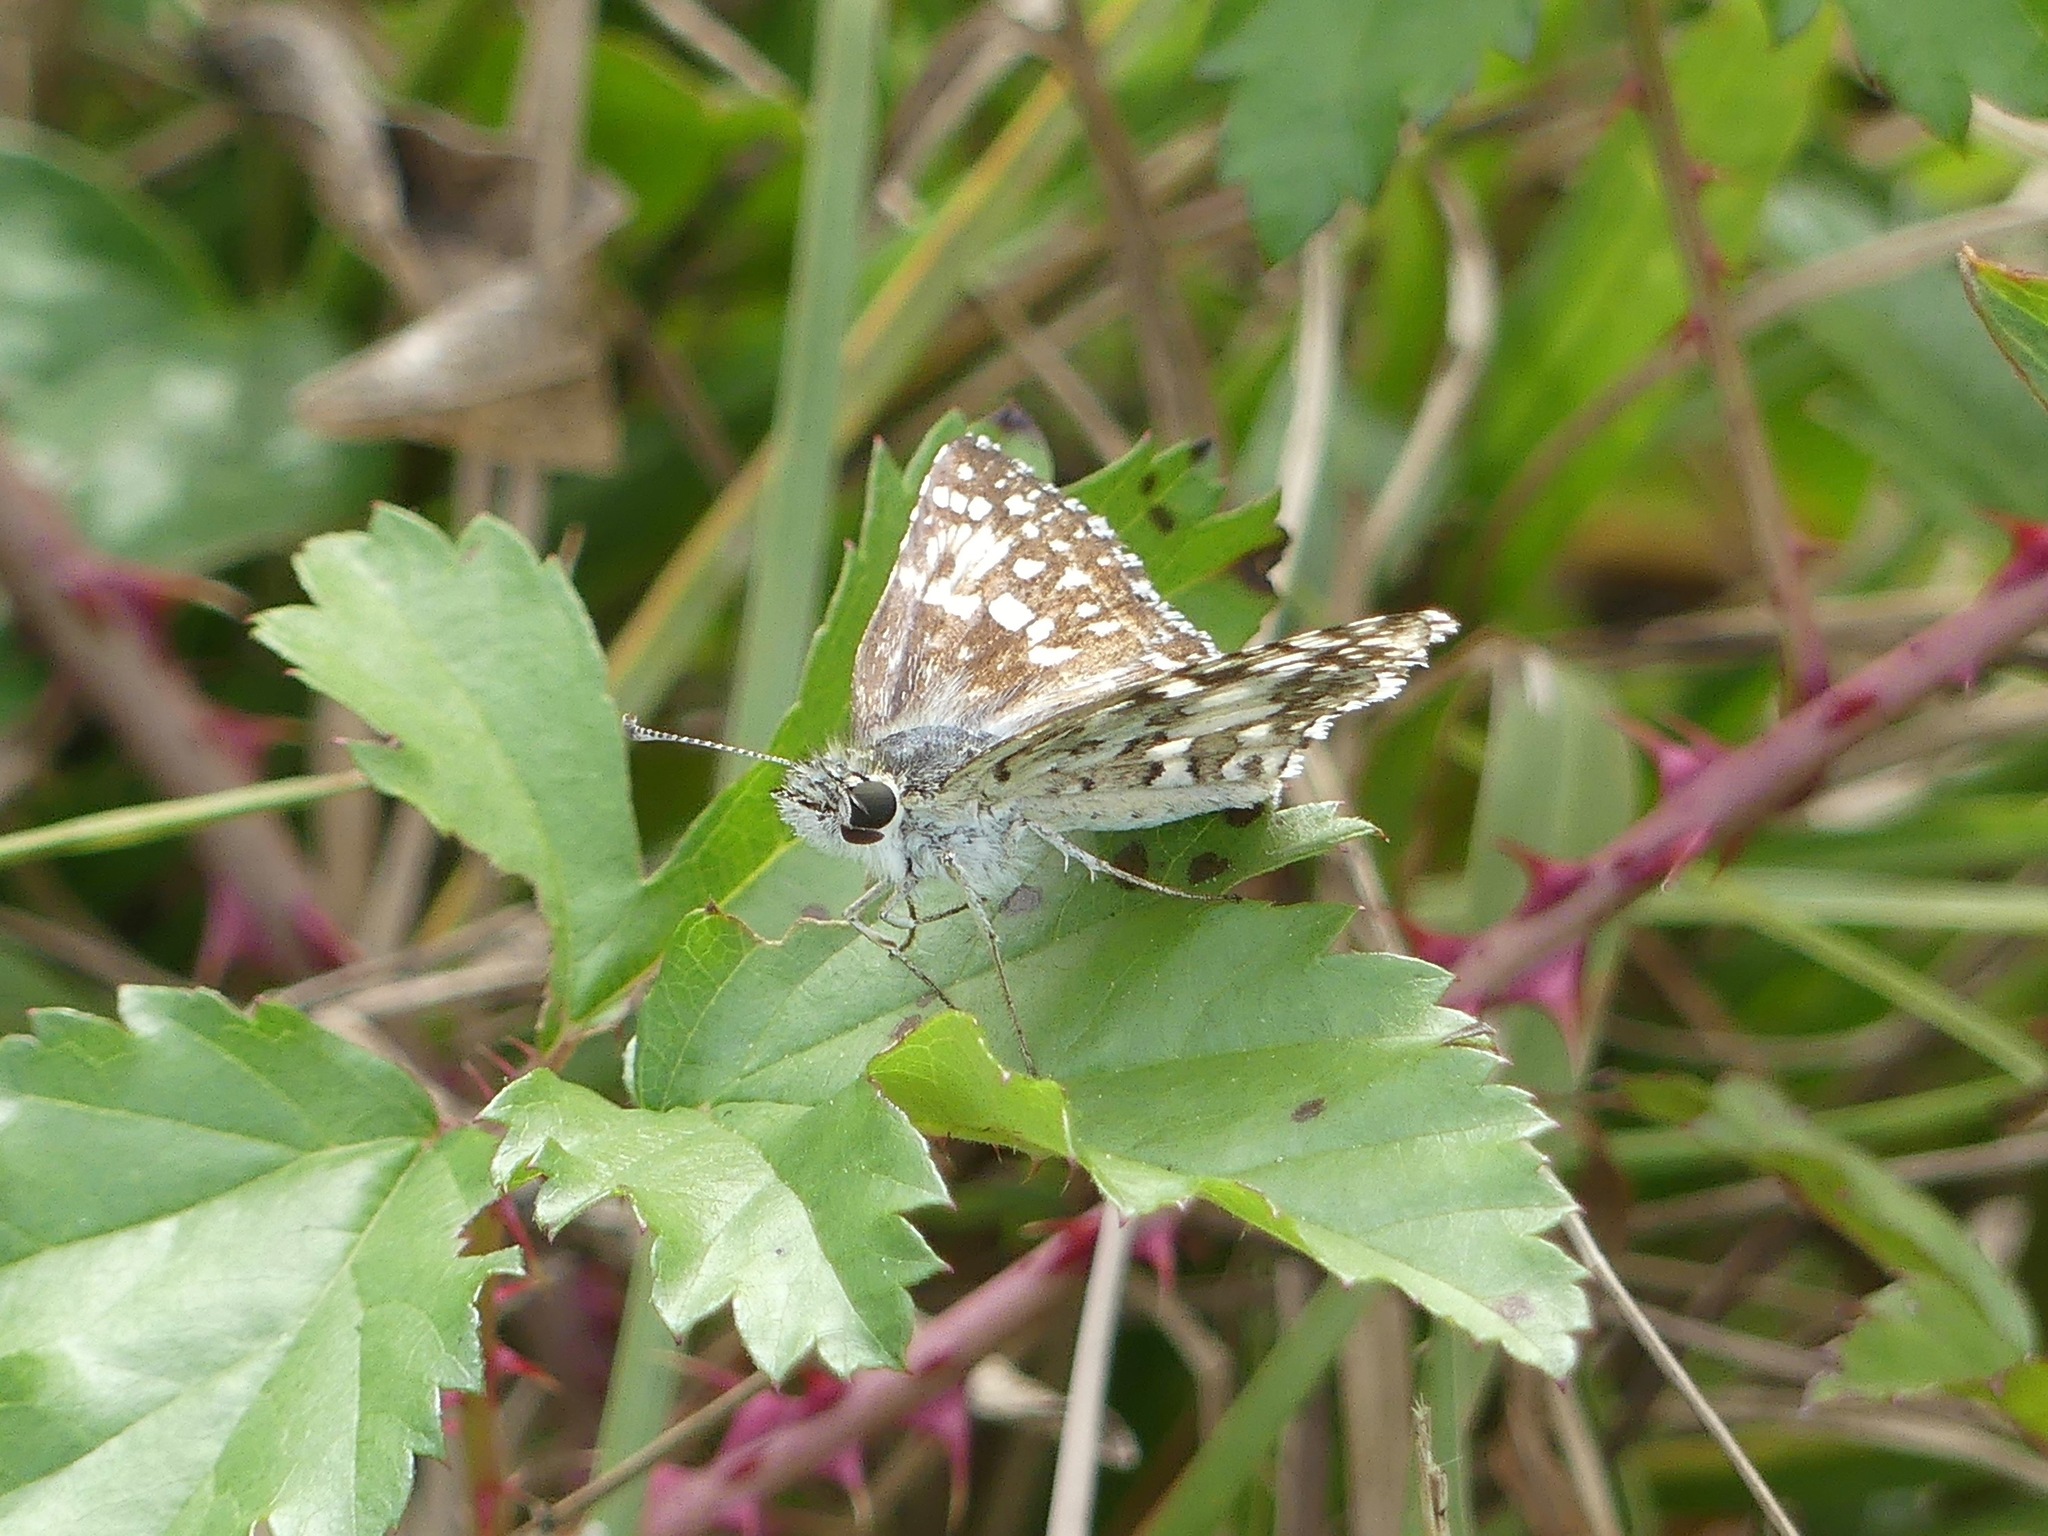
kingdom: Animalia
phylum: Arthropoda
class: Insecta
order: Lepidoptera
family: Hesperiidae
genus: Burnsius
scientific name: Burnsius
